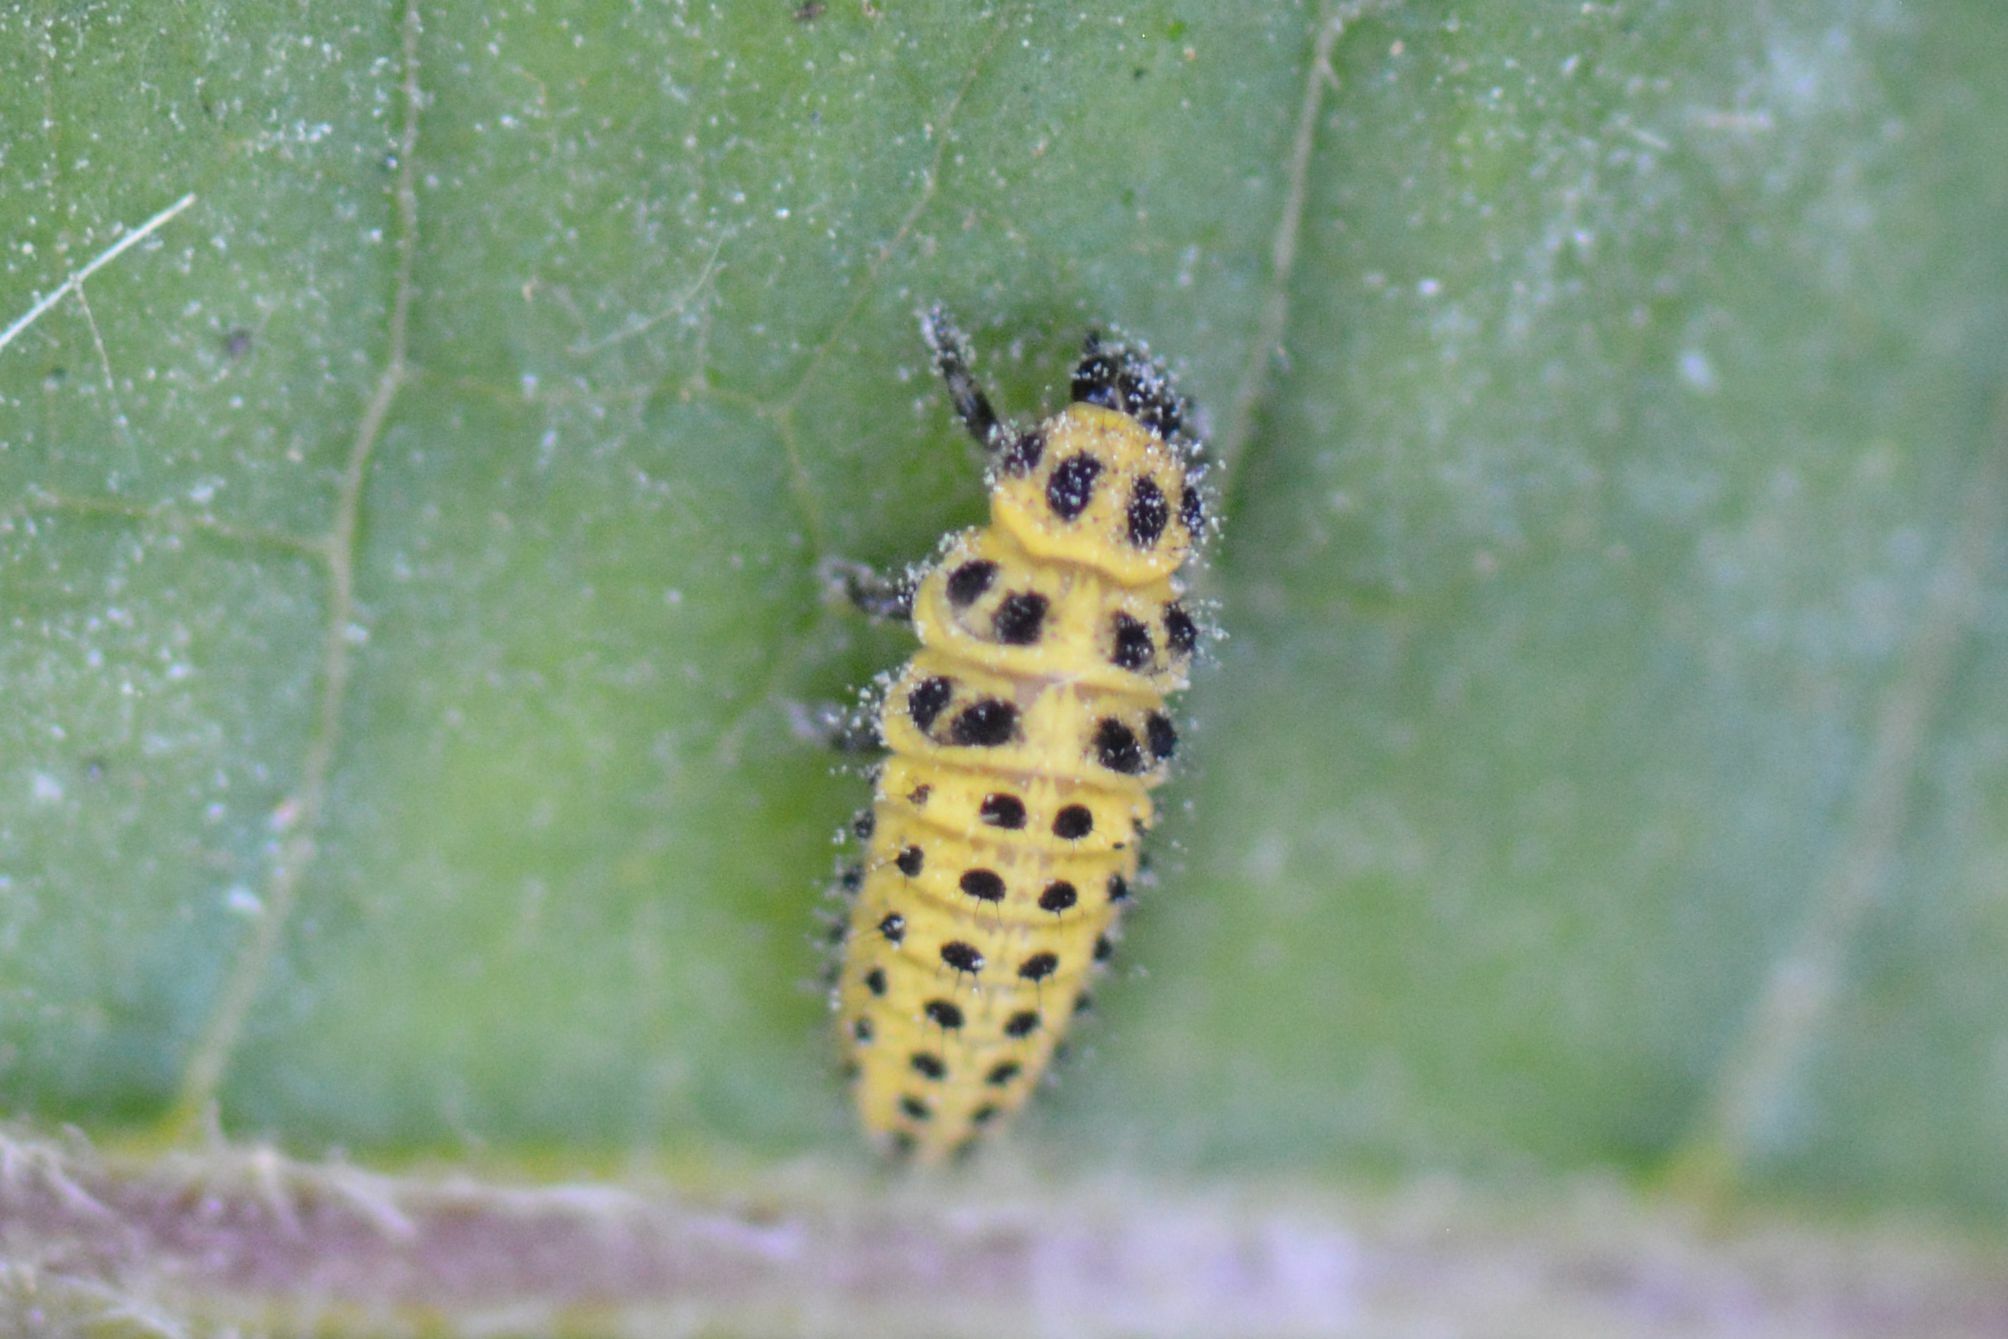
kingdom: Animalia
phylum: Arthropoda
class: Insecta
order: Coleoptera
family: Coccinellidae
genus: Psyllobora
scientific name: Psyllobora vigintiduopunctata
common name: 22-spot ladybird
